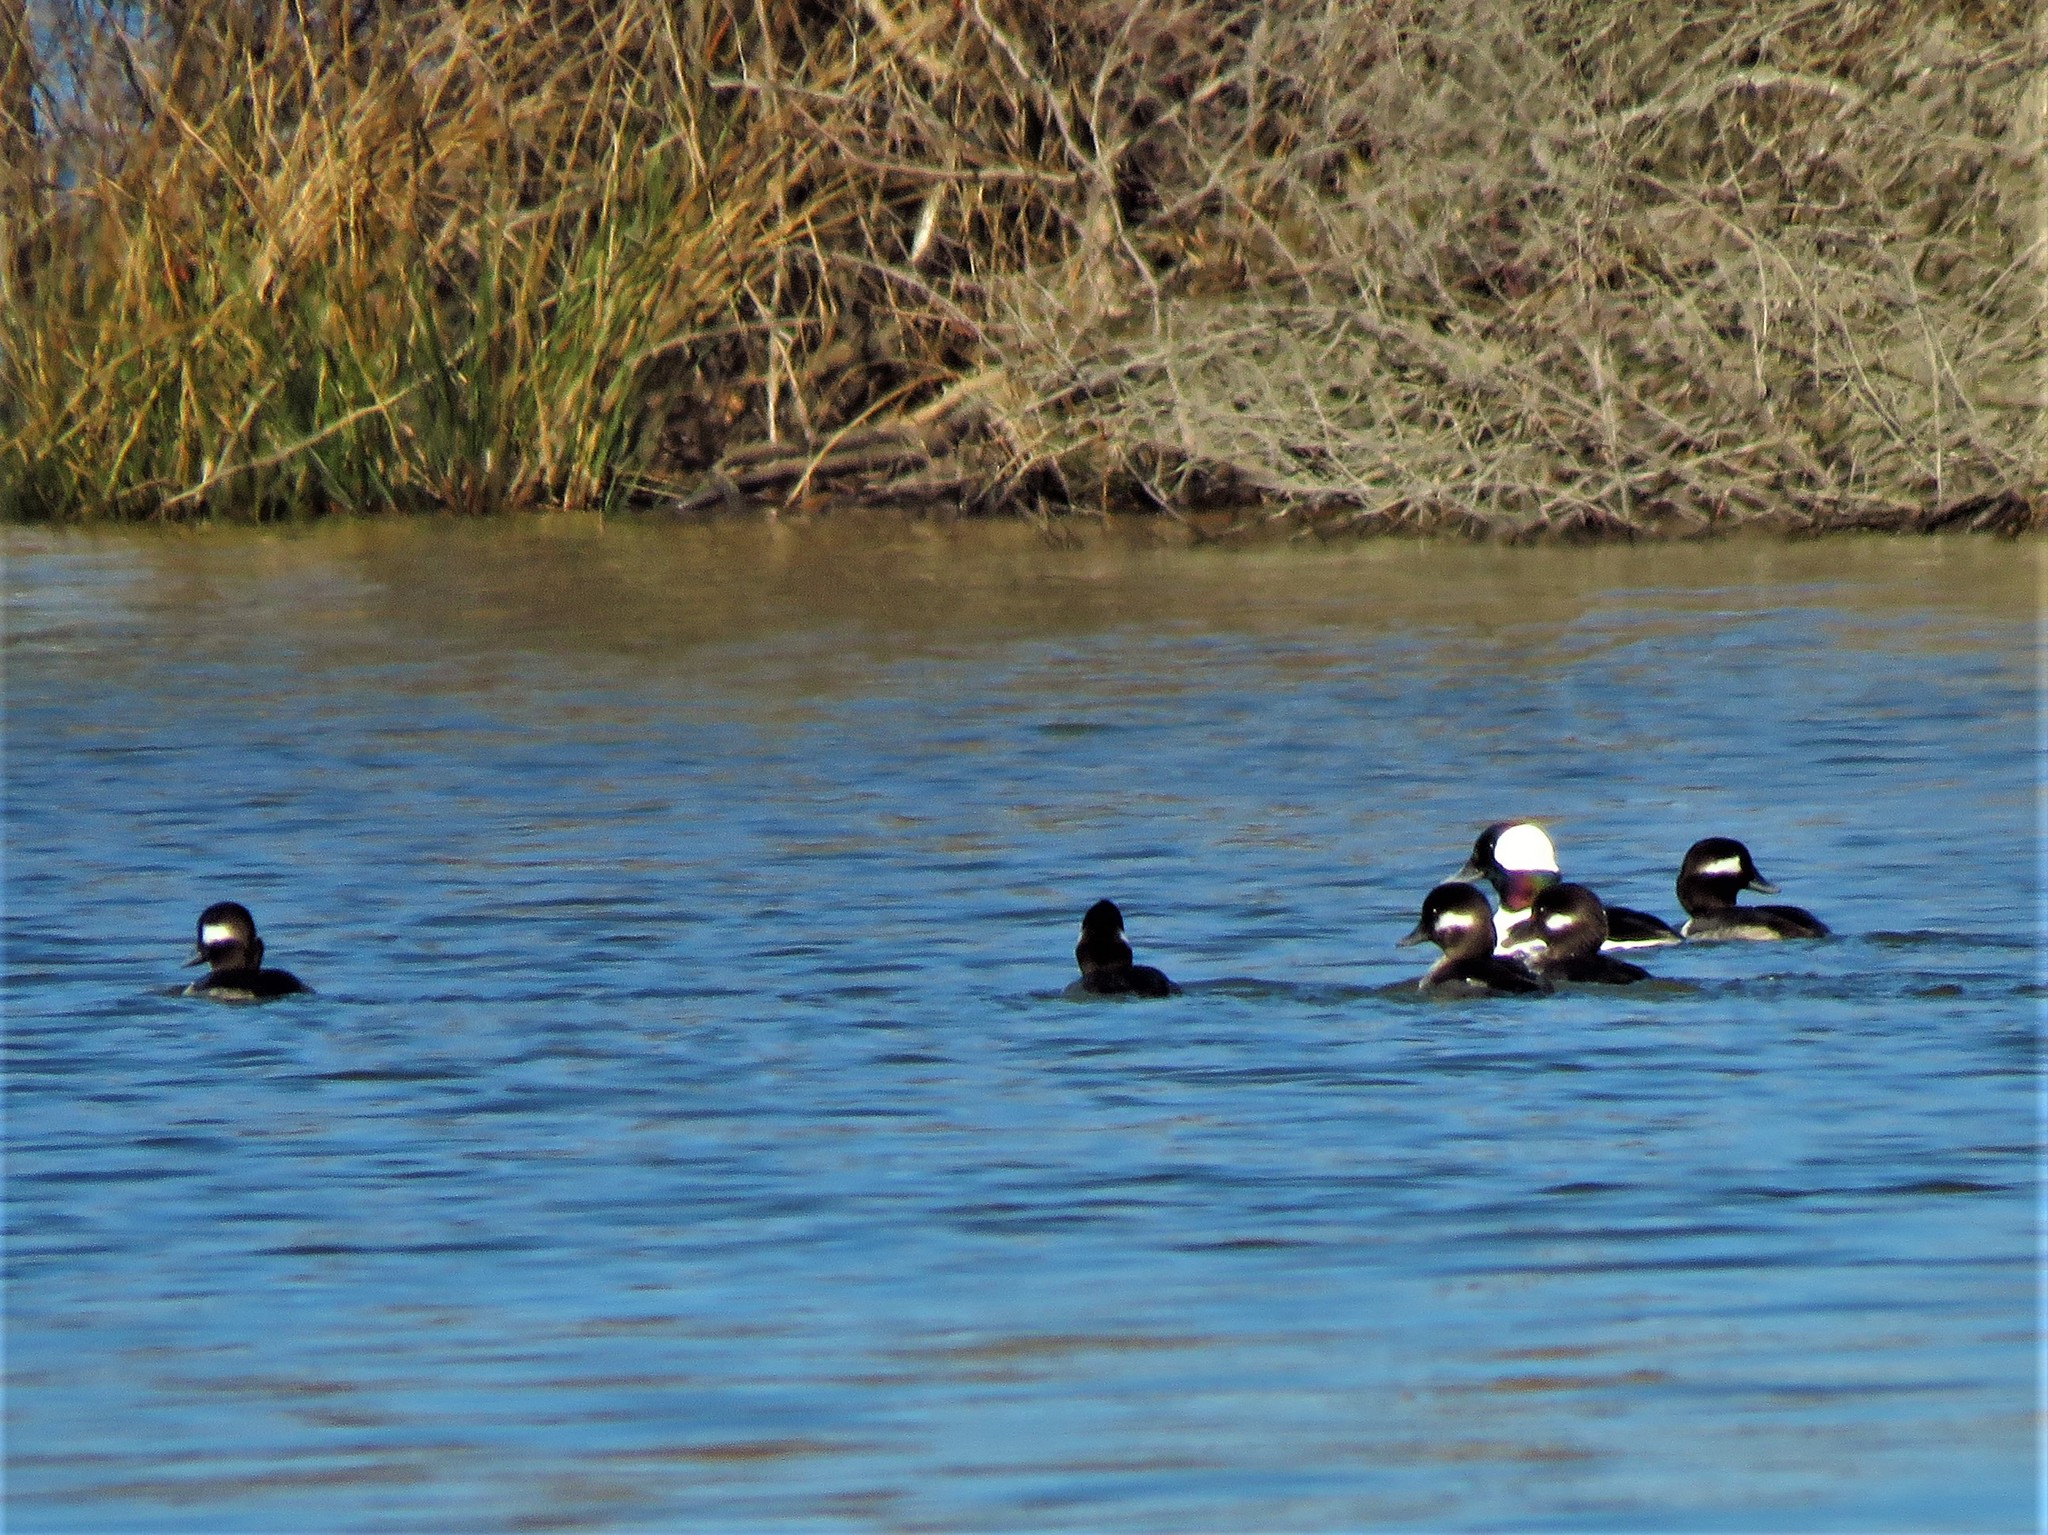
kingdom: Animalia
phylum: Chordata
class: Aves
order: Anseriformes
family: Anatidae
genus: Bucephala
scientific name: Bucephala albeola
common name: Bufflehead
